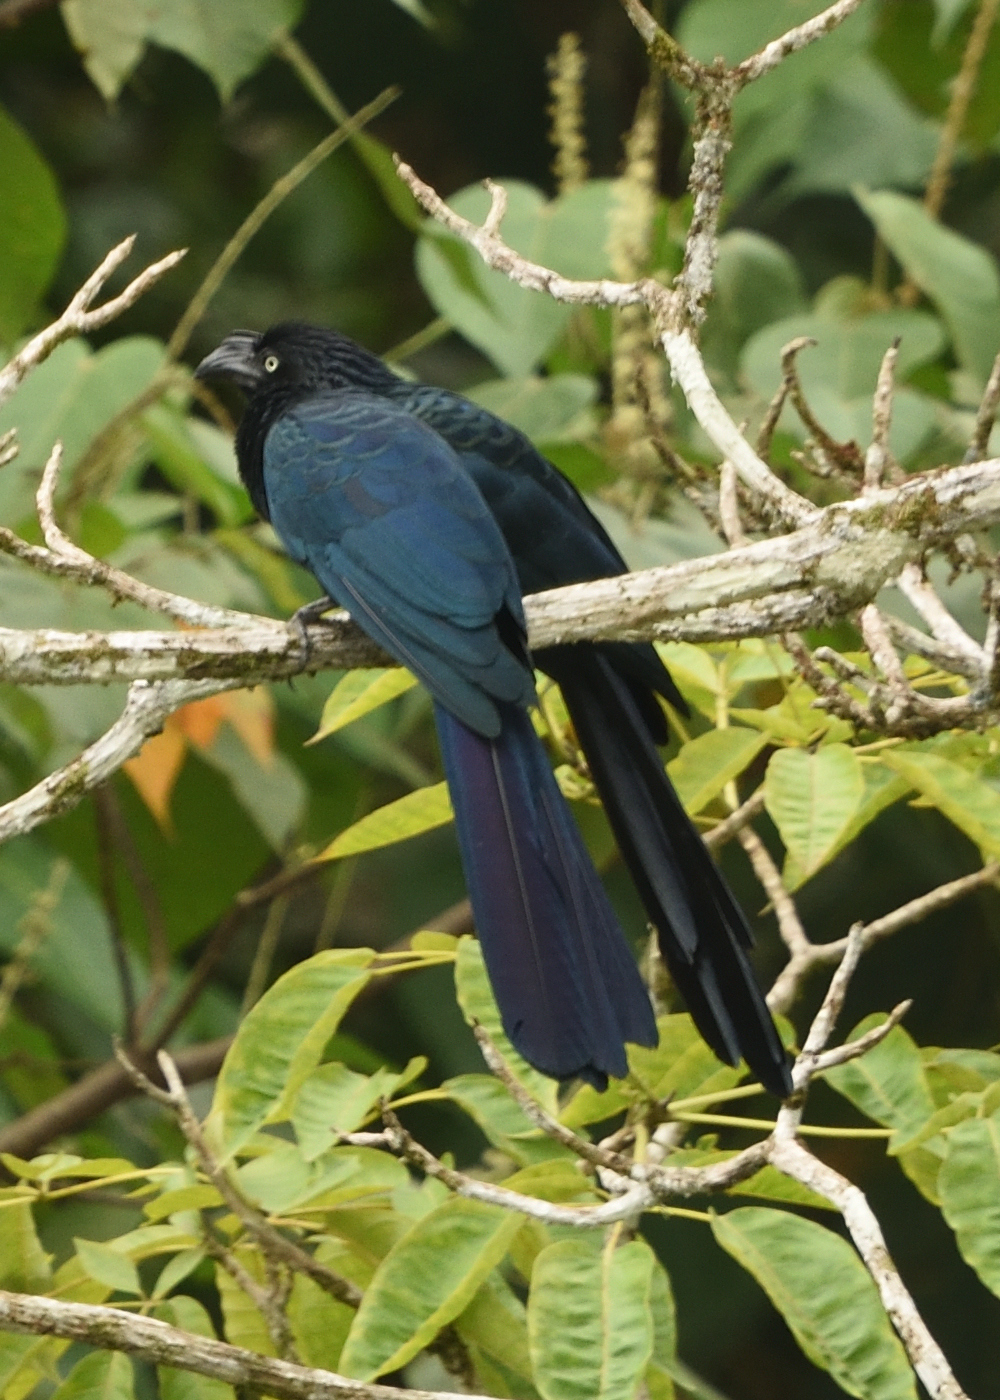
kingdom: Animalia
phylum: Chordata
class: Aves
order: Cuculiformes
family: Cuculidae
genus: Crotophaga
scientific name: Crotophaga major
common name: Greater ani
